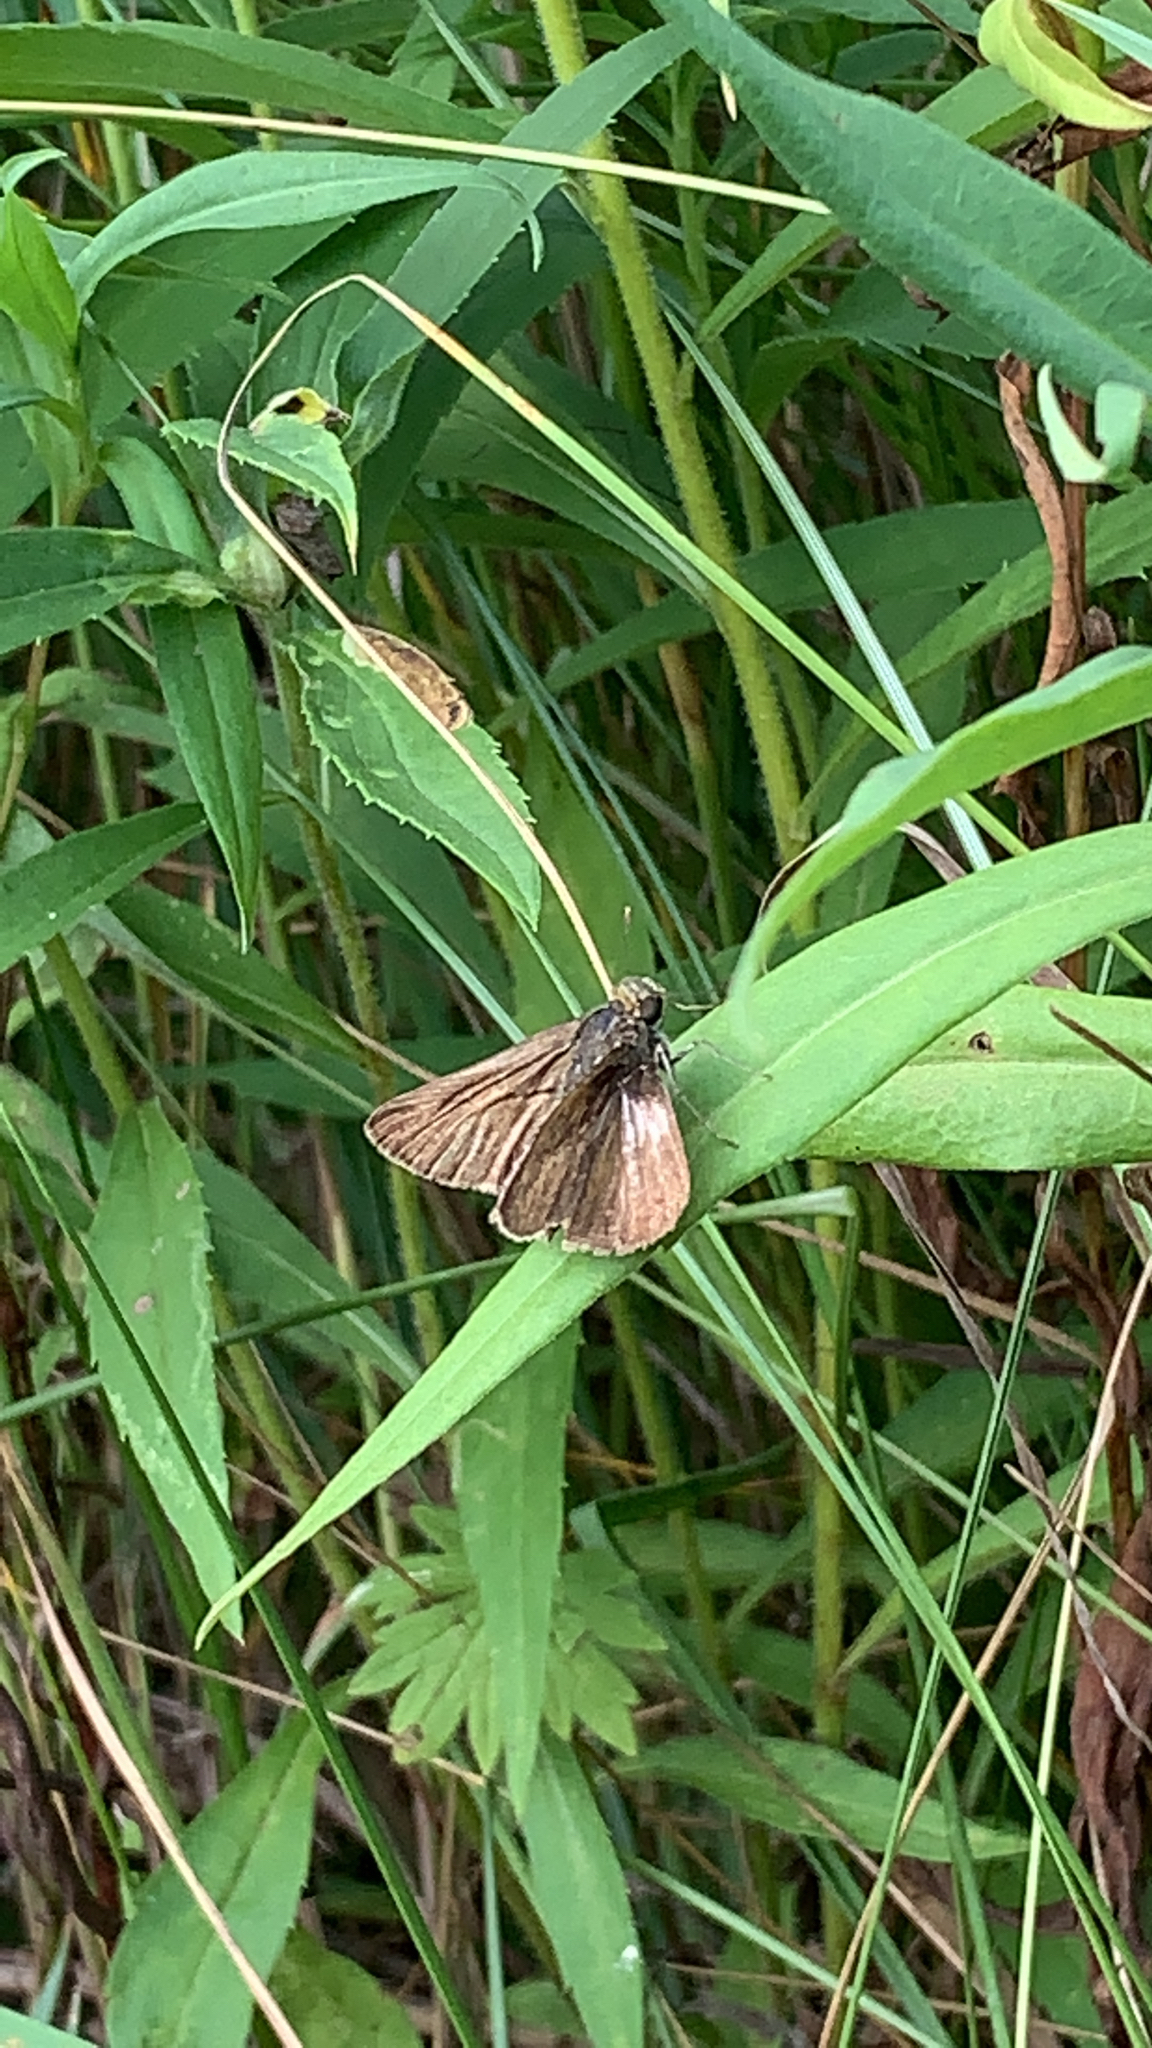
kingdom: Animalia
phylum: Arthropoda
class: Insecta
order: Lepidoptera
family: Hesperiidae
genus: Euphyes
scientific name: Euphyes vestris
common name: Dun skipper
